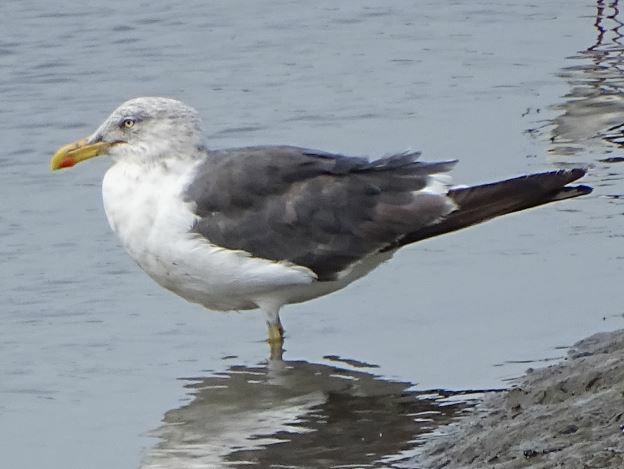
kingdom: Animalia
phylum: Chordata
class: Aves
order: Charadriiformes
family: Laridae
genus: Larus
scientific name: Larus fuscus
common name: Lesser black-backed gull
